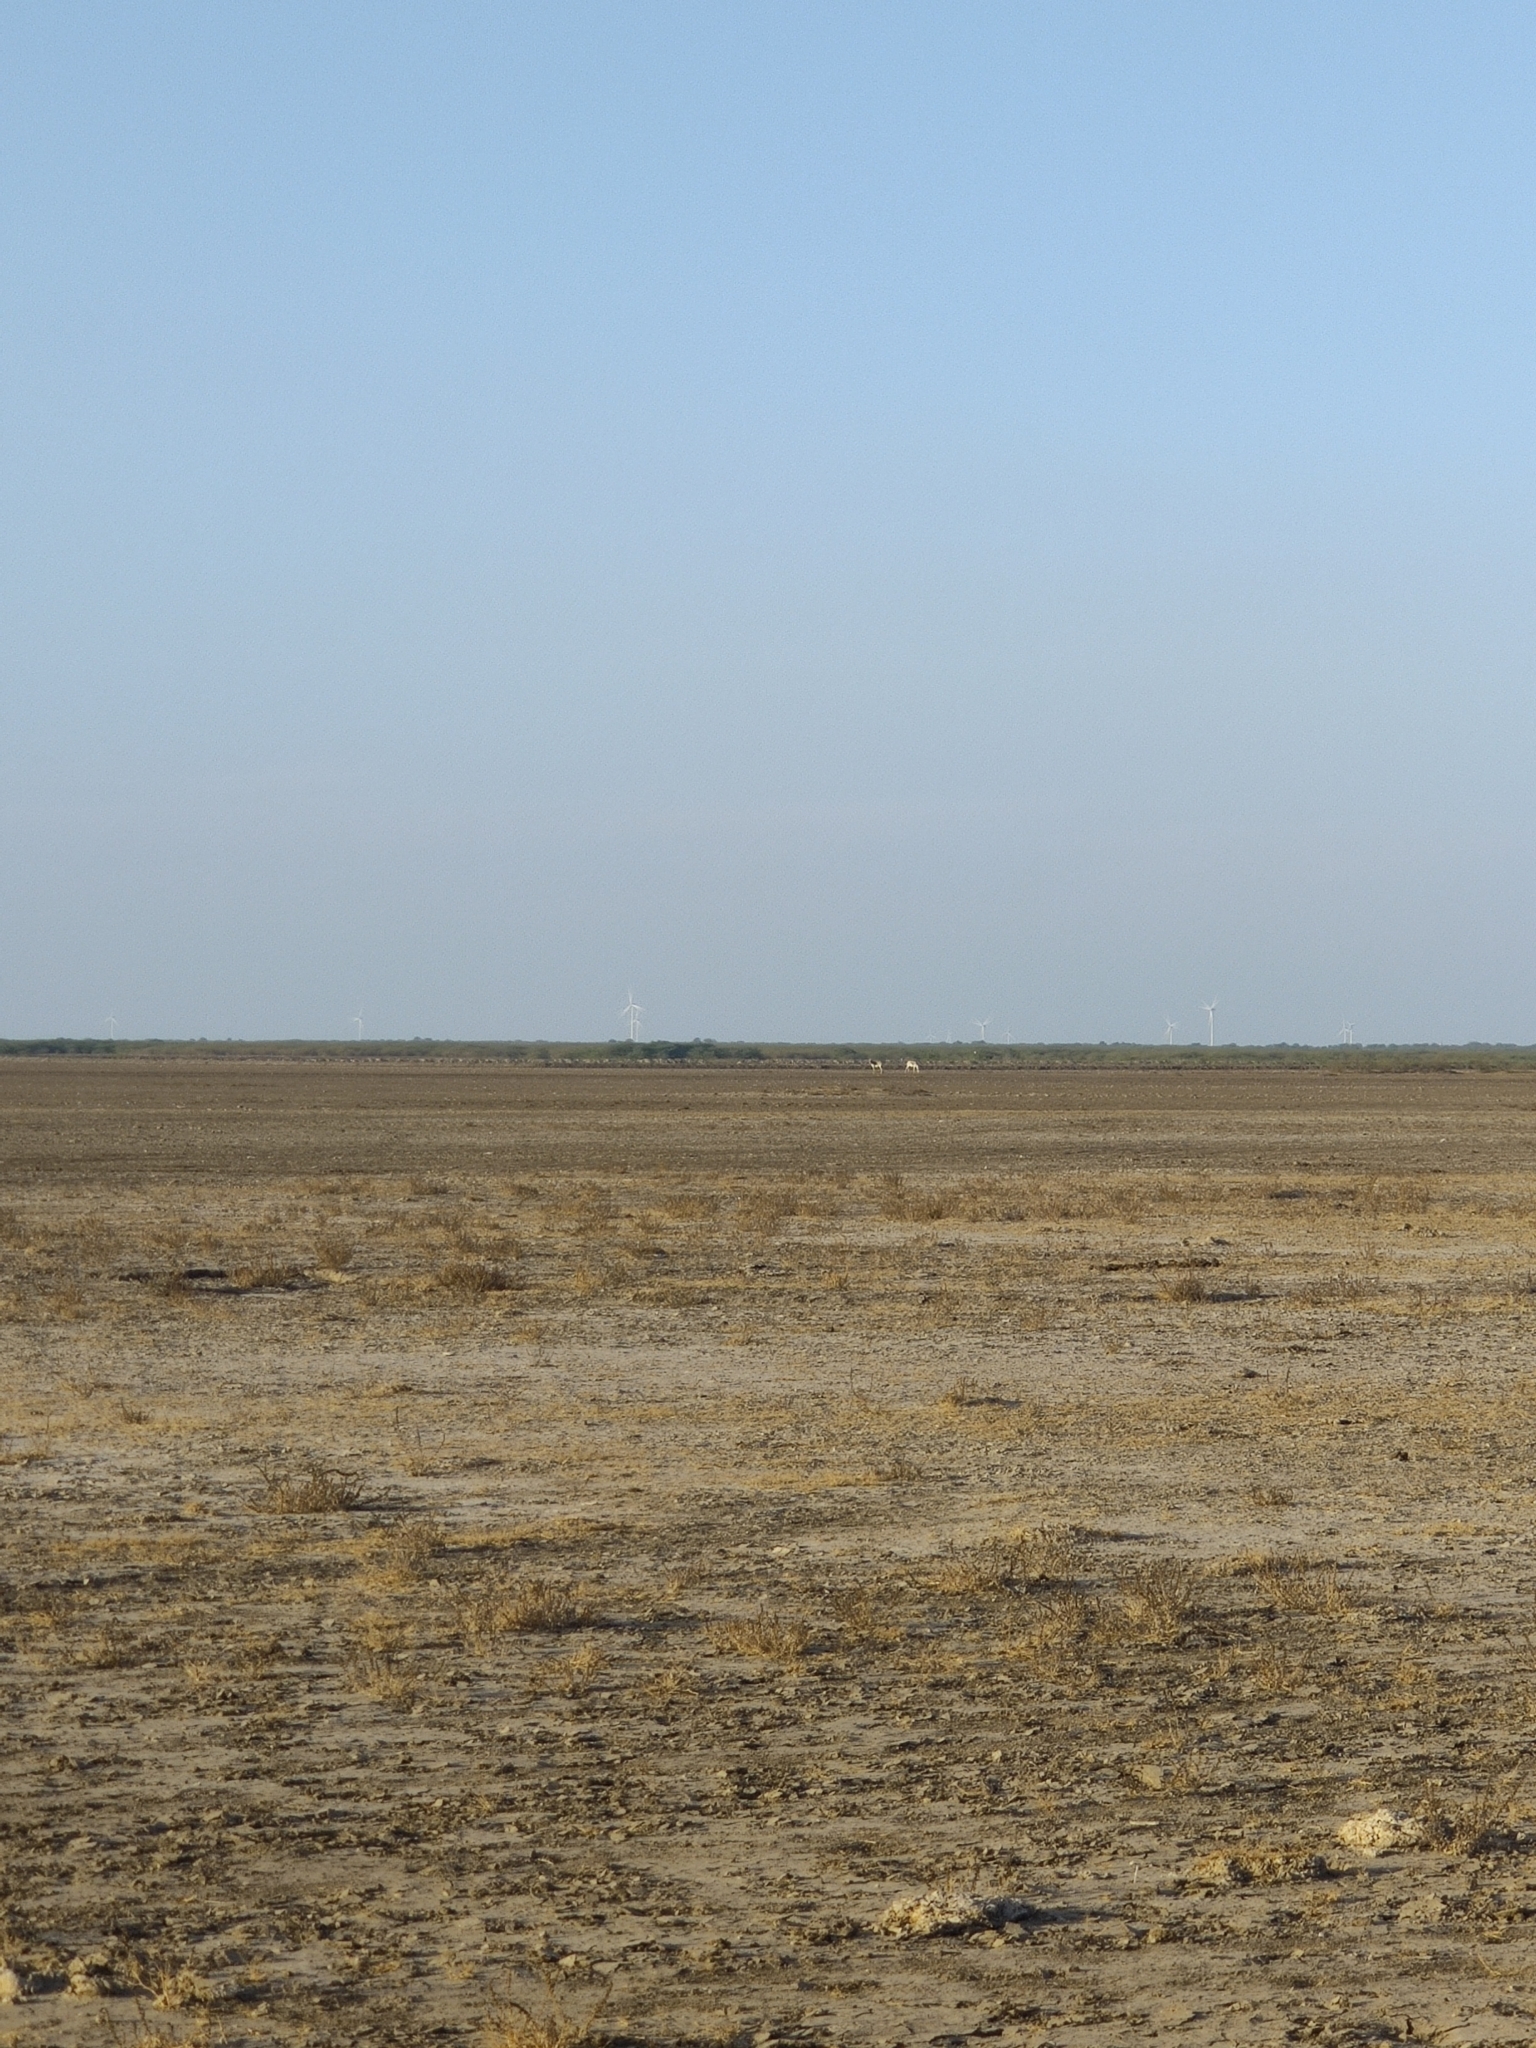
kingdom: Animalia
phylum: Chordata
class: Mammalia
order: Perissodactyla
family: Equidae
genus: Equus
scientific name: Equus khur
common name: Indian wild ass
